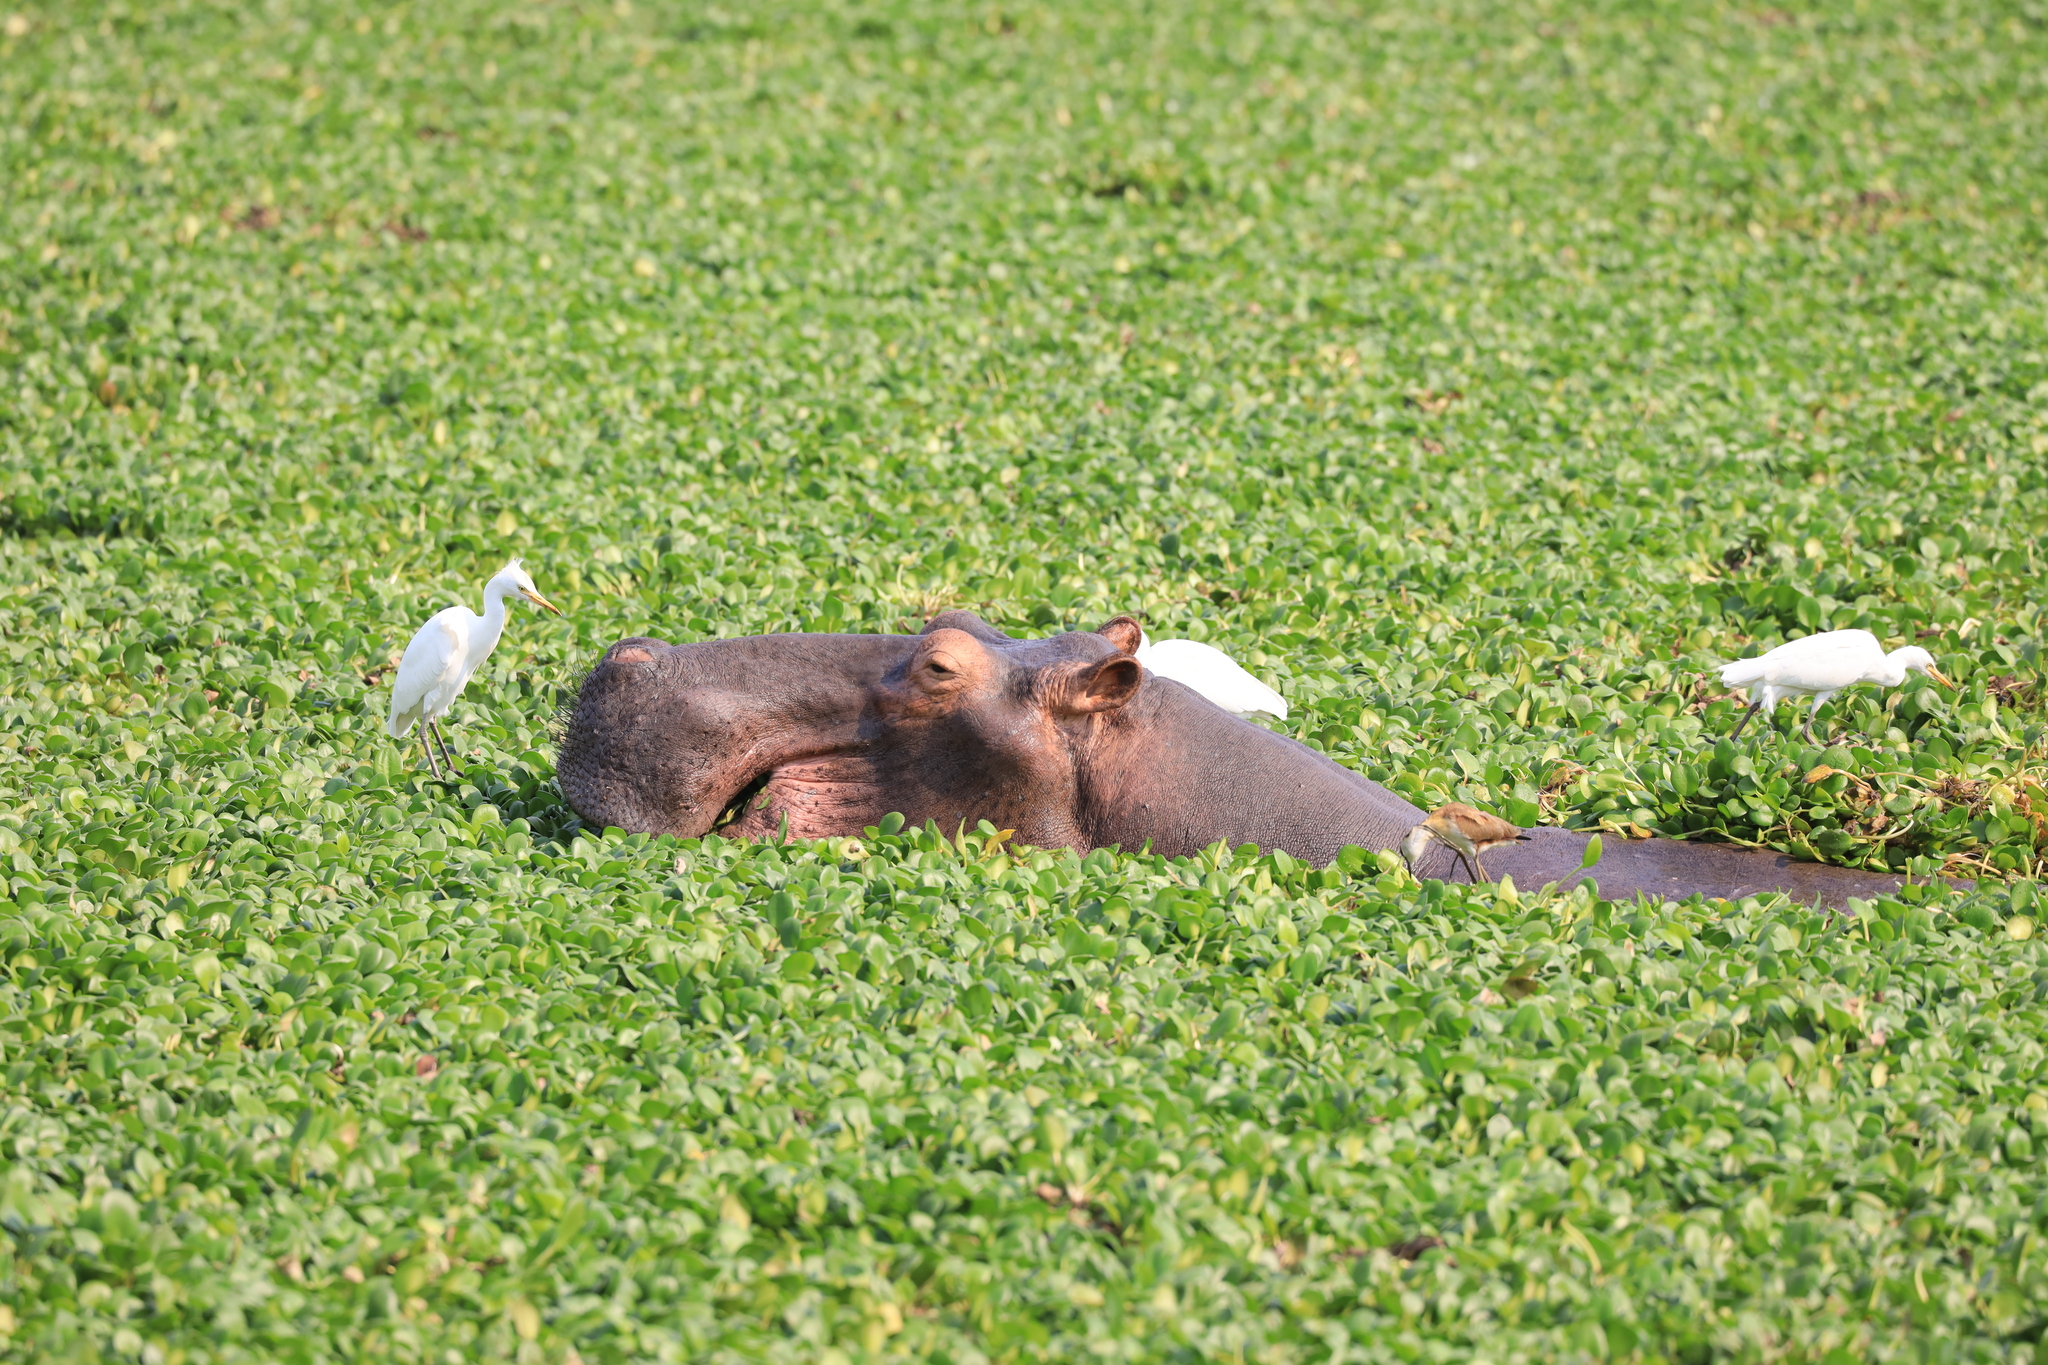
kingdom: Animalia
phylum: Chordata
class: Mammalia
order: Artiodactyla
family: Hippopotamidae
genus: Hippopotamus
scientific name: Hippopotamus amphibius
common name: Common hippopotamus
